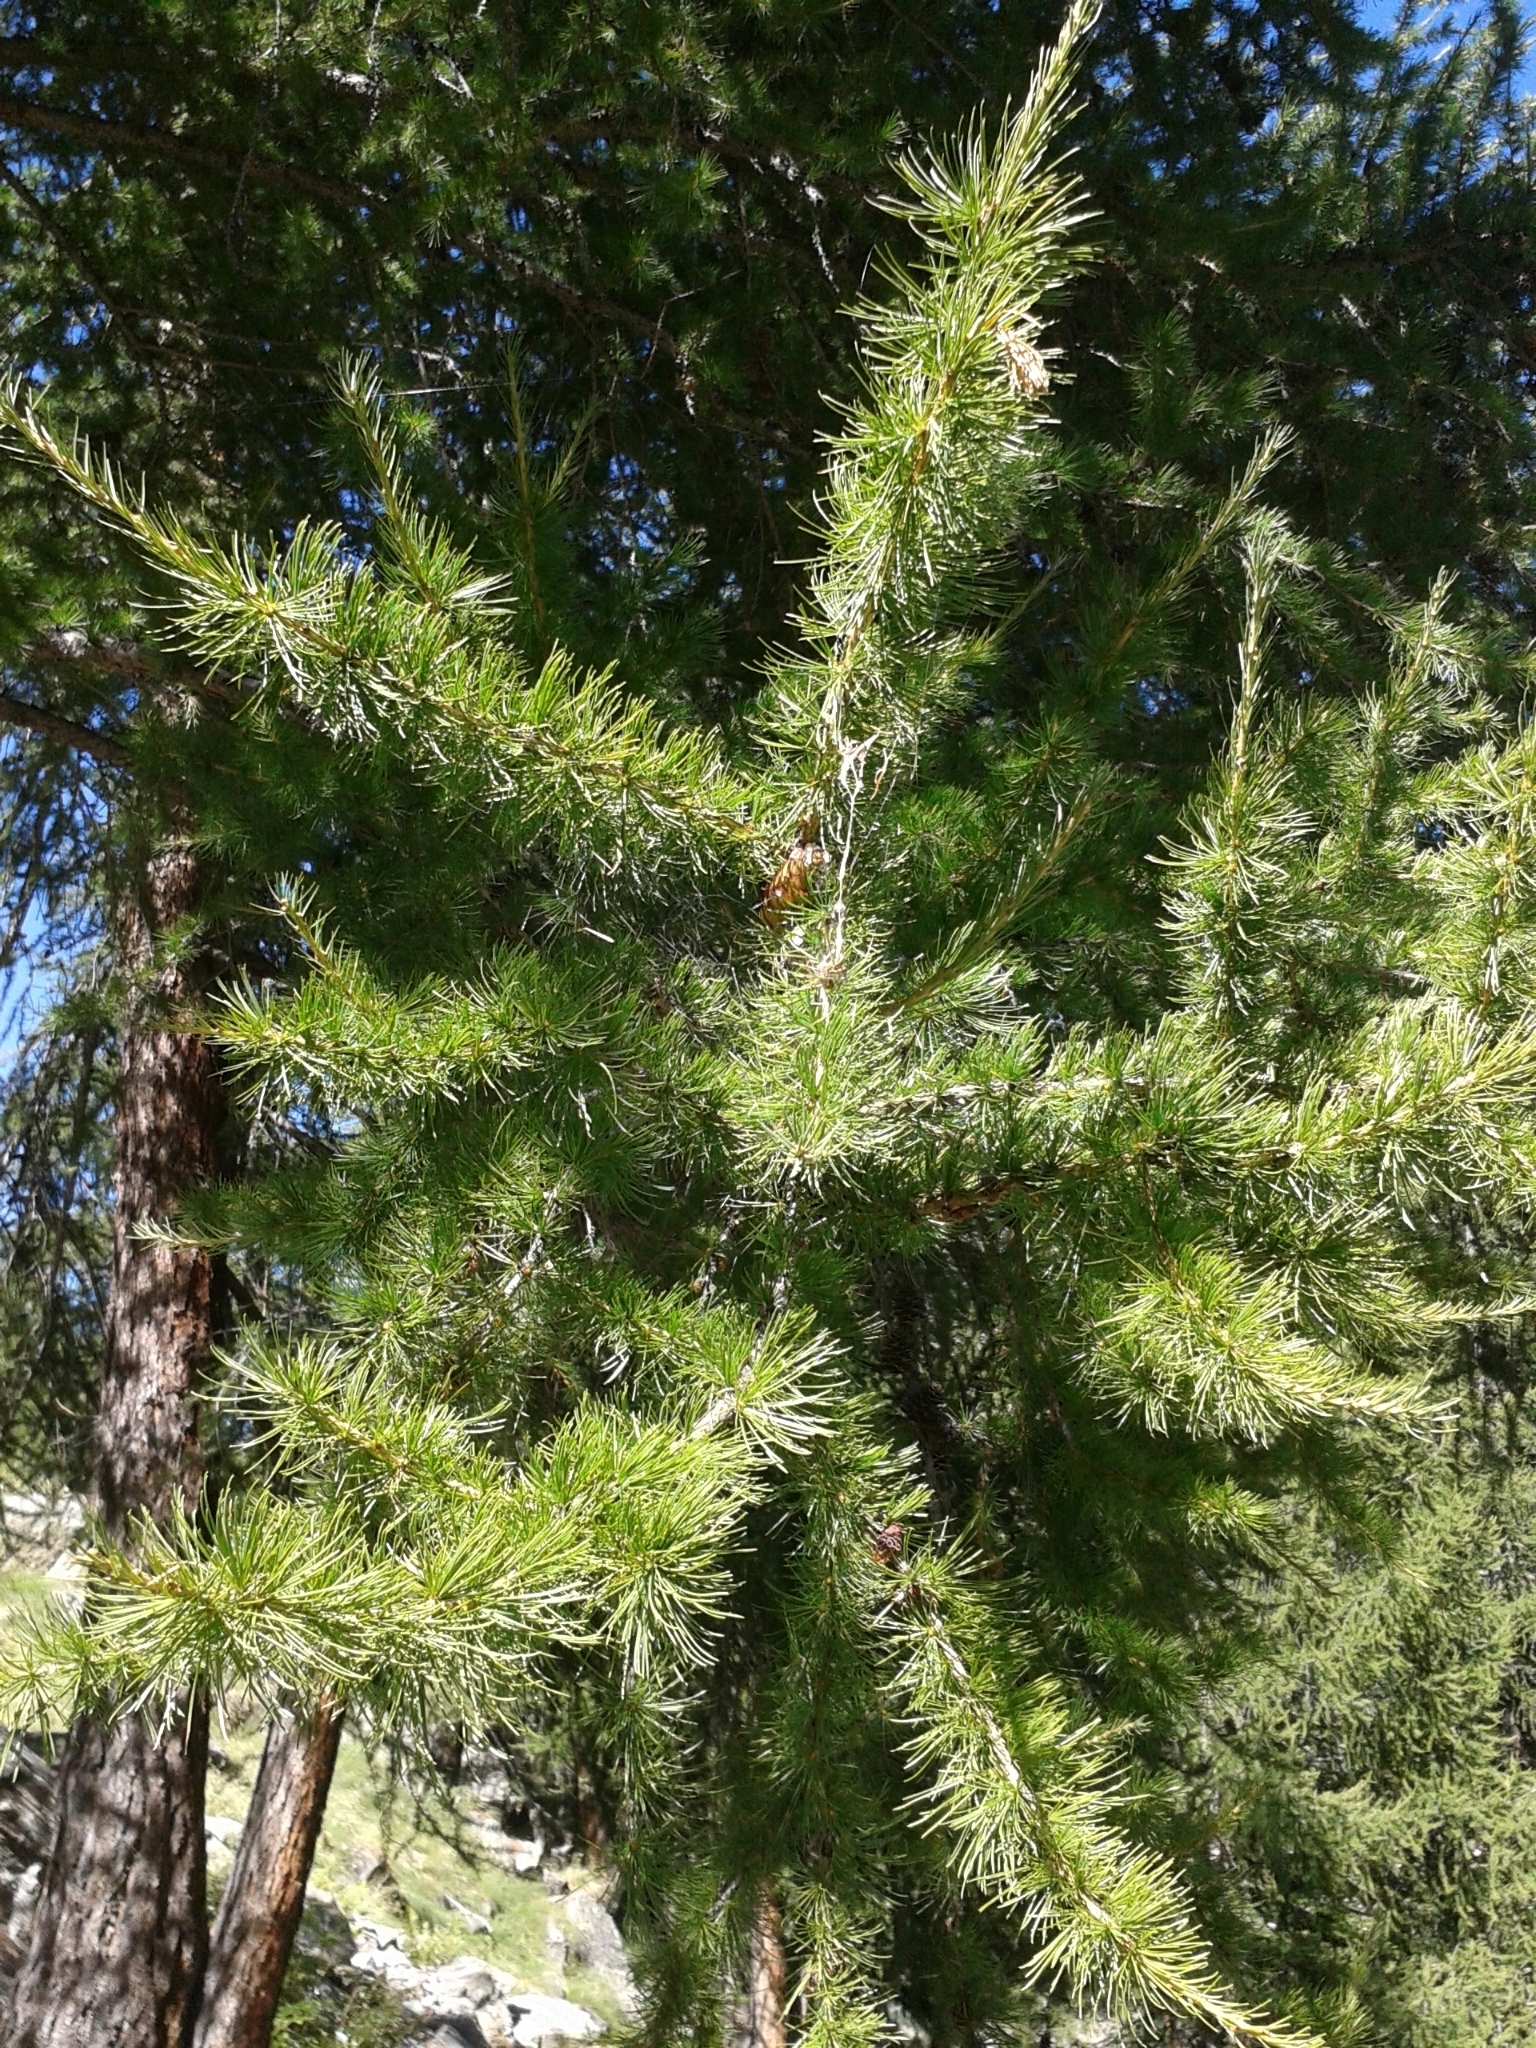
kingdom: Plantae
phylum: Tracheophyta
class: Pinopsida
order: Pinales
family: Pinaceae
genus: Larix
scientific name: Larix decidua
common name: European larch
